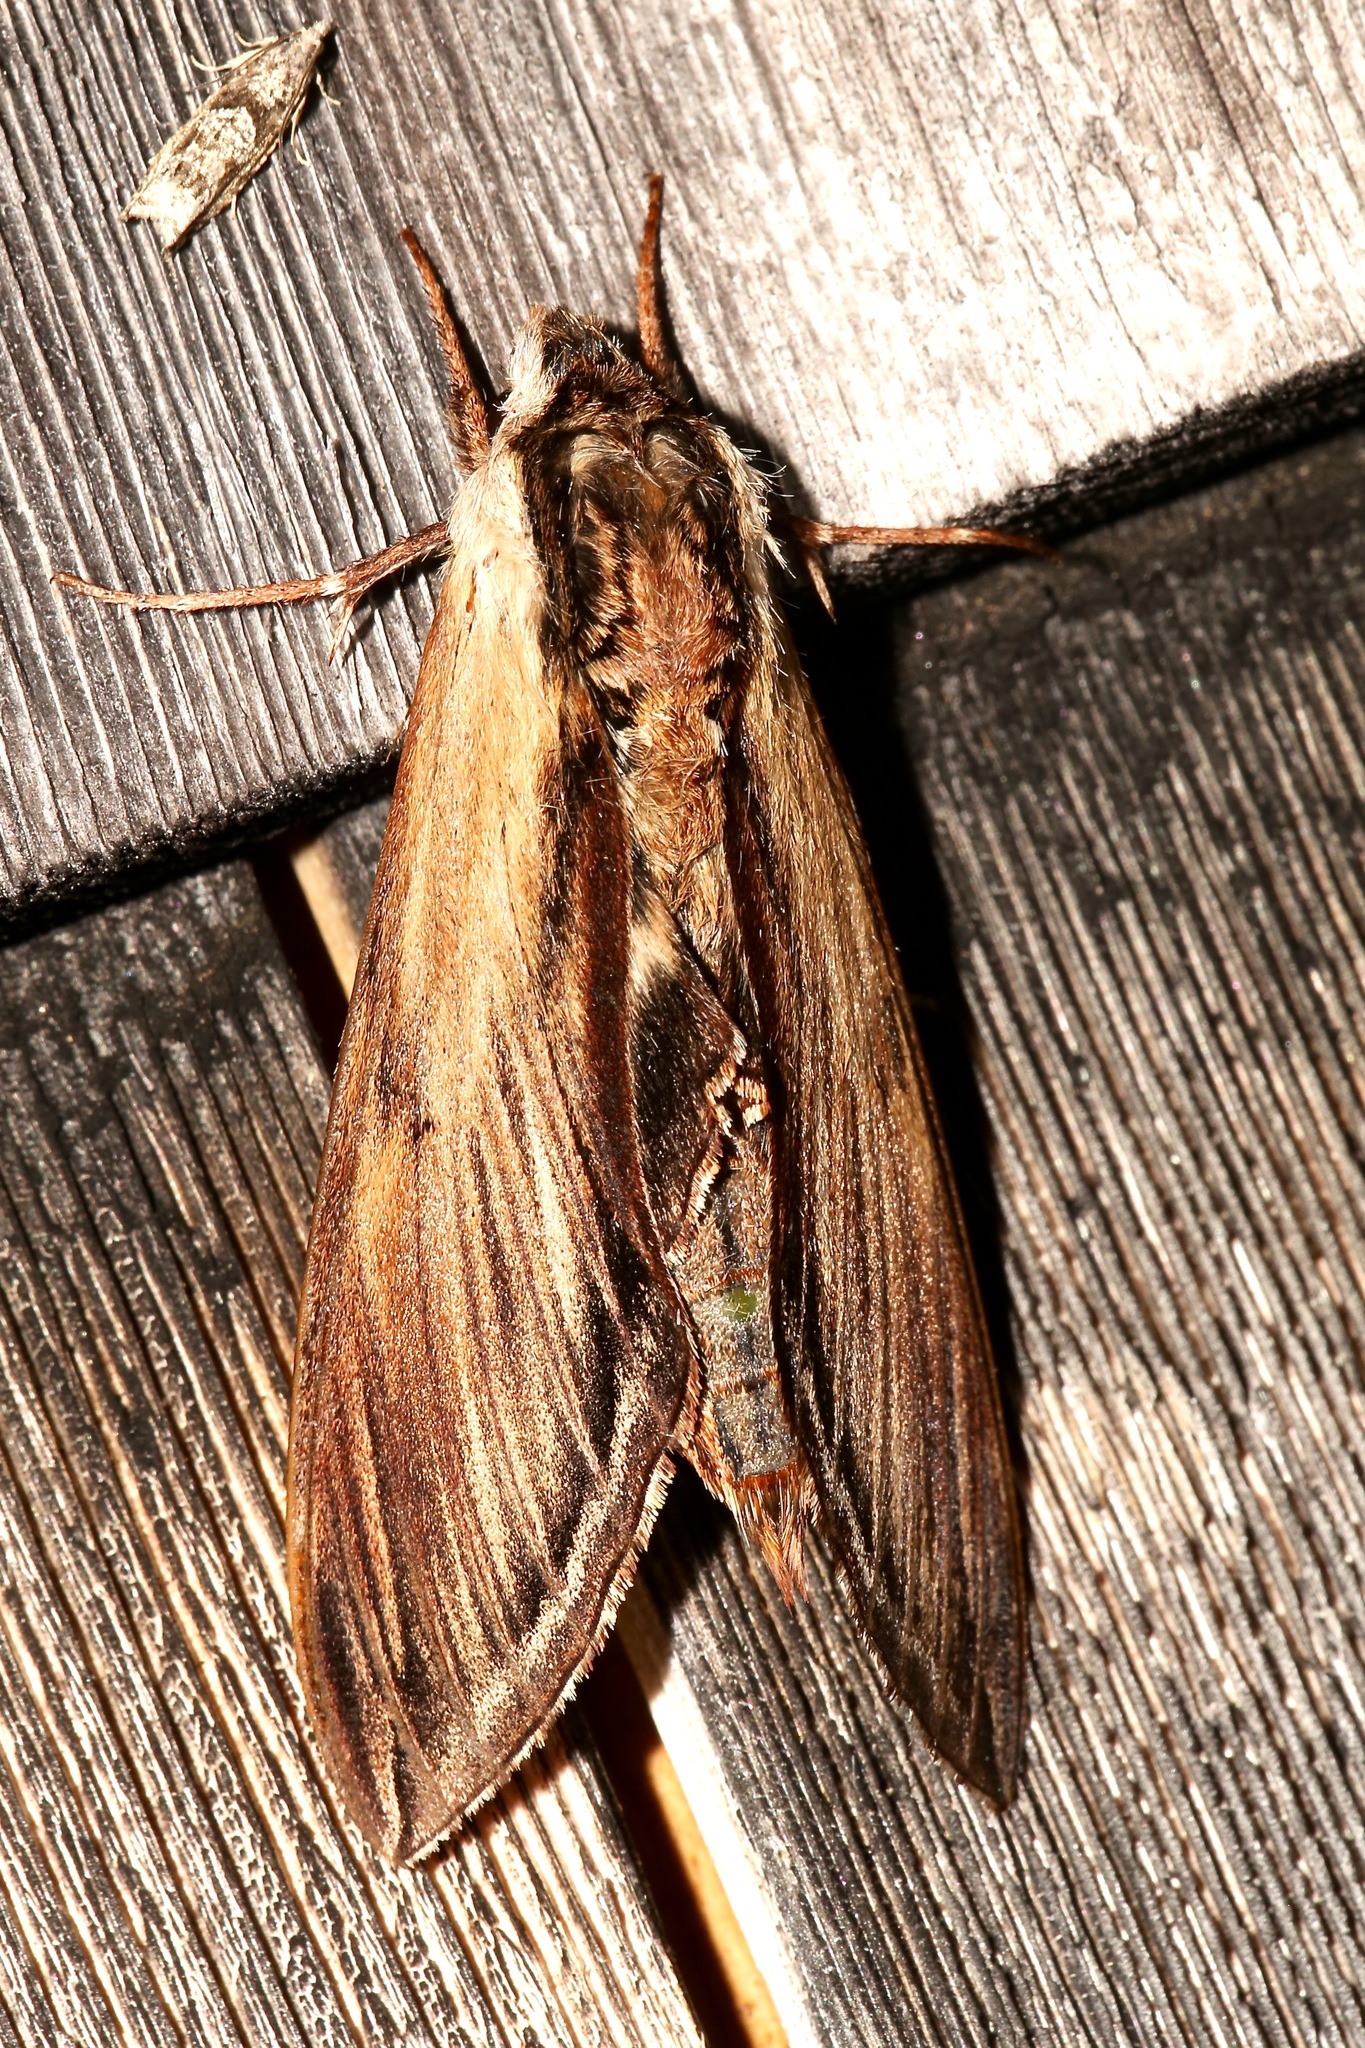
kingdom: Animalia
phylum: Arthropoda
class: Insecta
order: Lepidoptera
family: Sphingidae
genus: Sphinx
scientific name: Sphinx kalmiae
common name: Laurel sphinx
